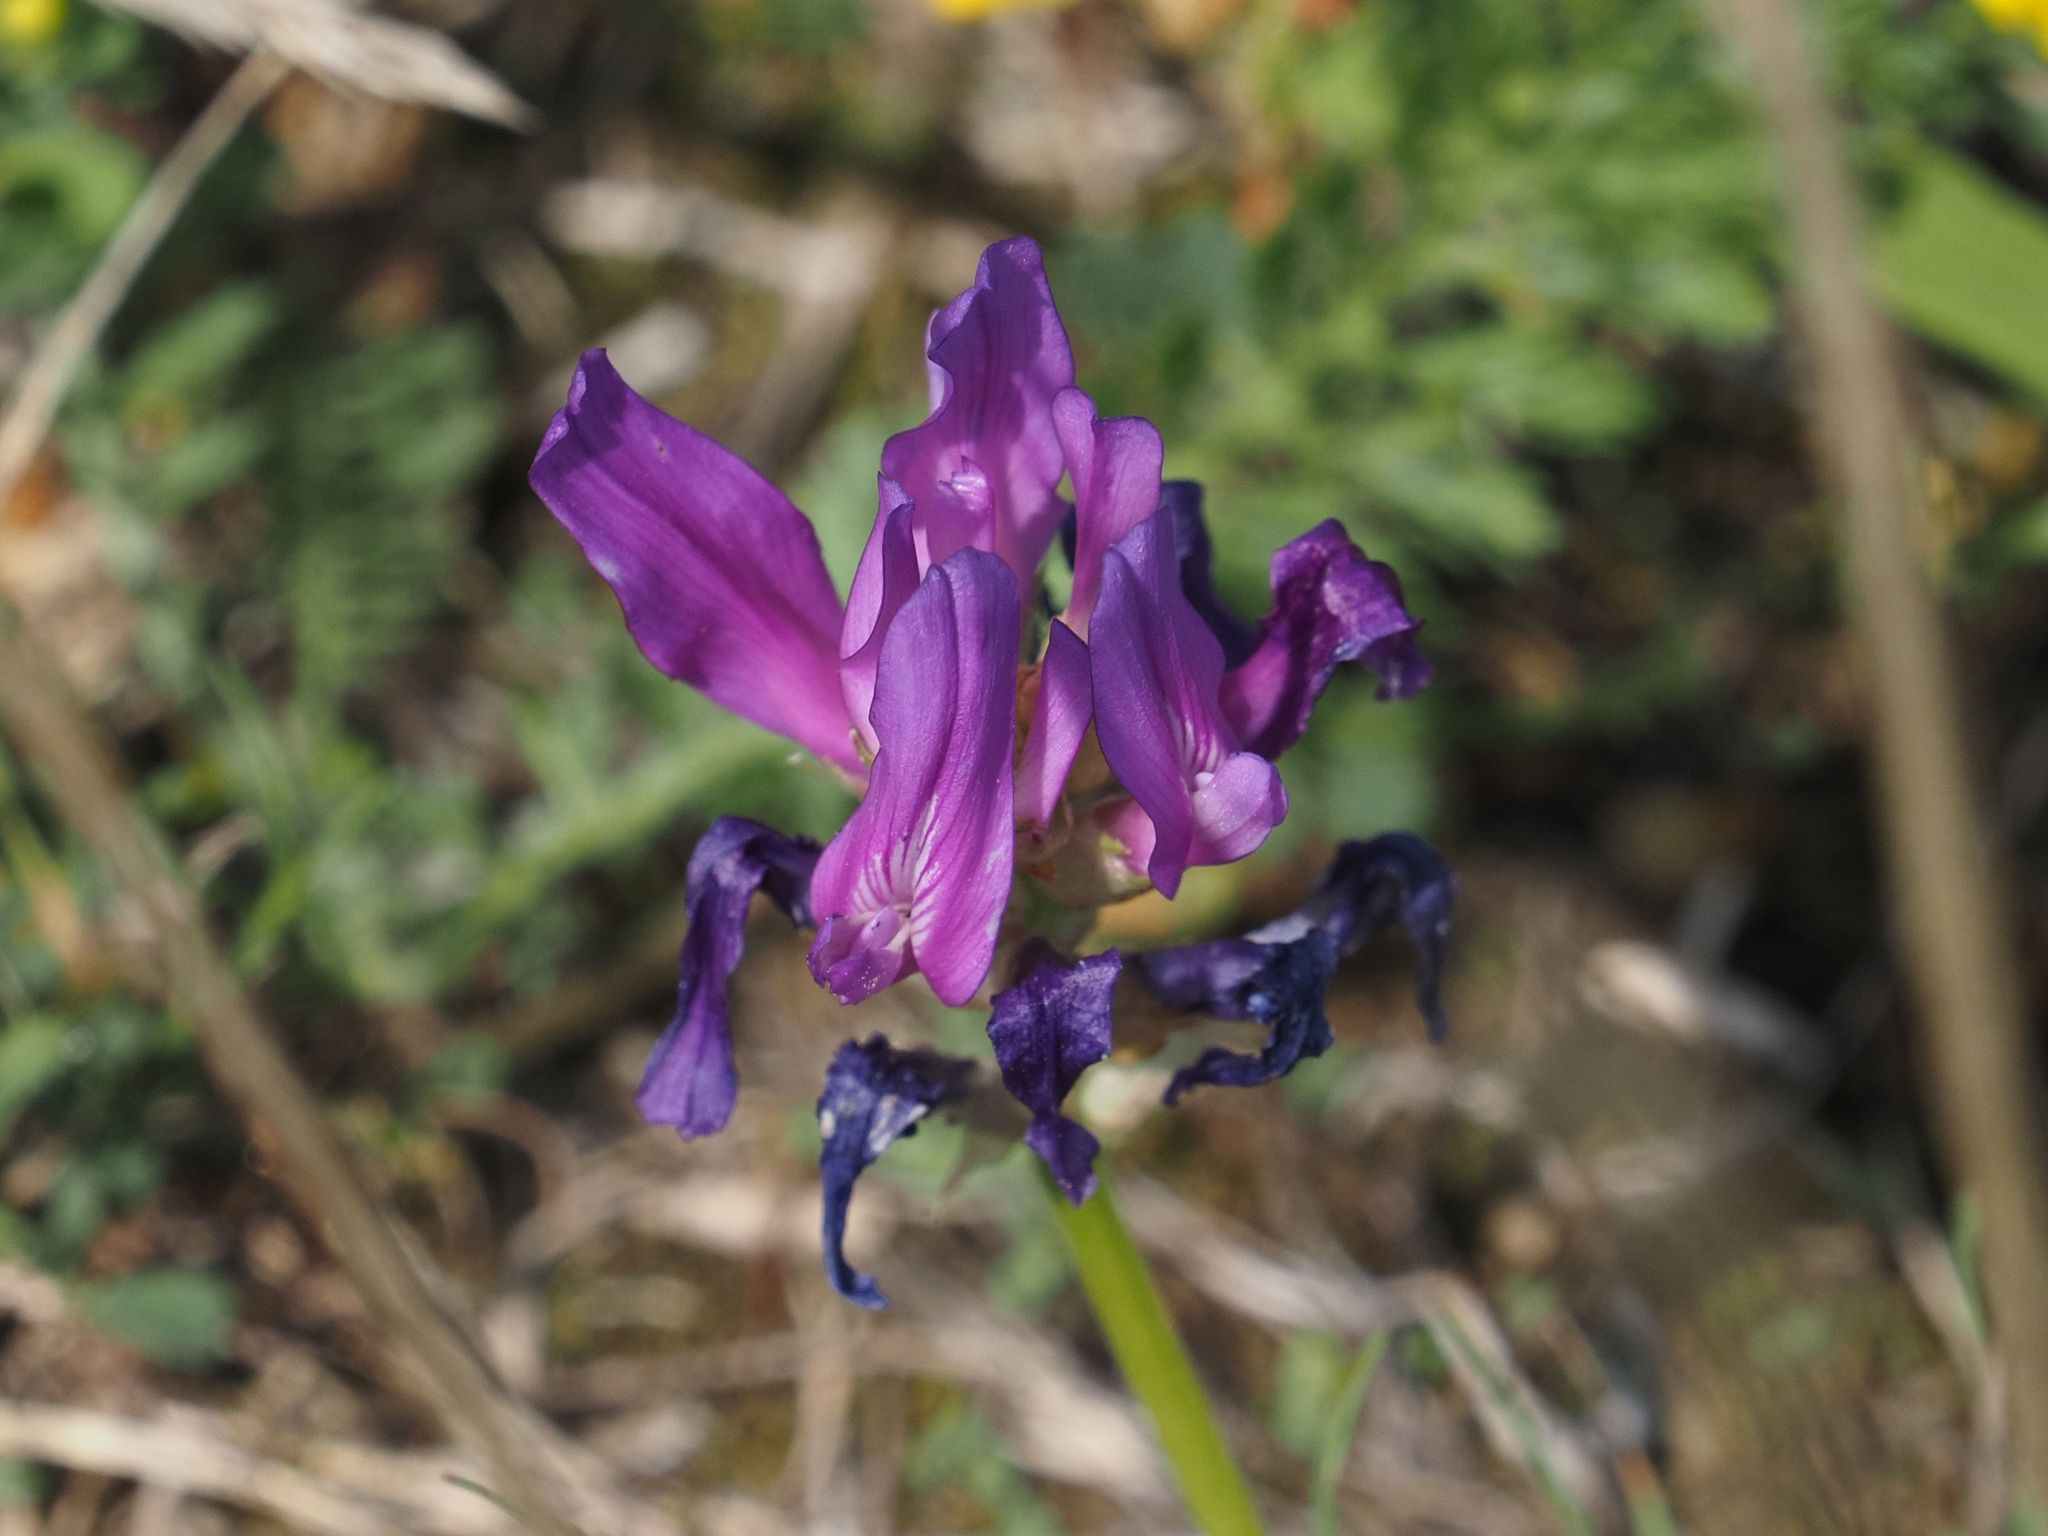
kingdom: Plantae
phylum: Tracheophyta
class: Magnoliopsida
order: Fabales
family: Fabaceae
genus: Astragalus
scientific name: Astragalus onobrychis
